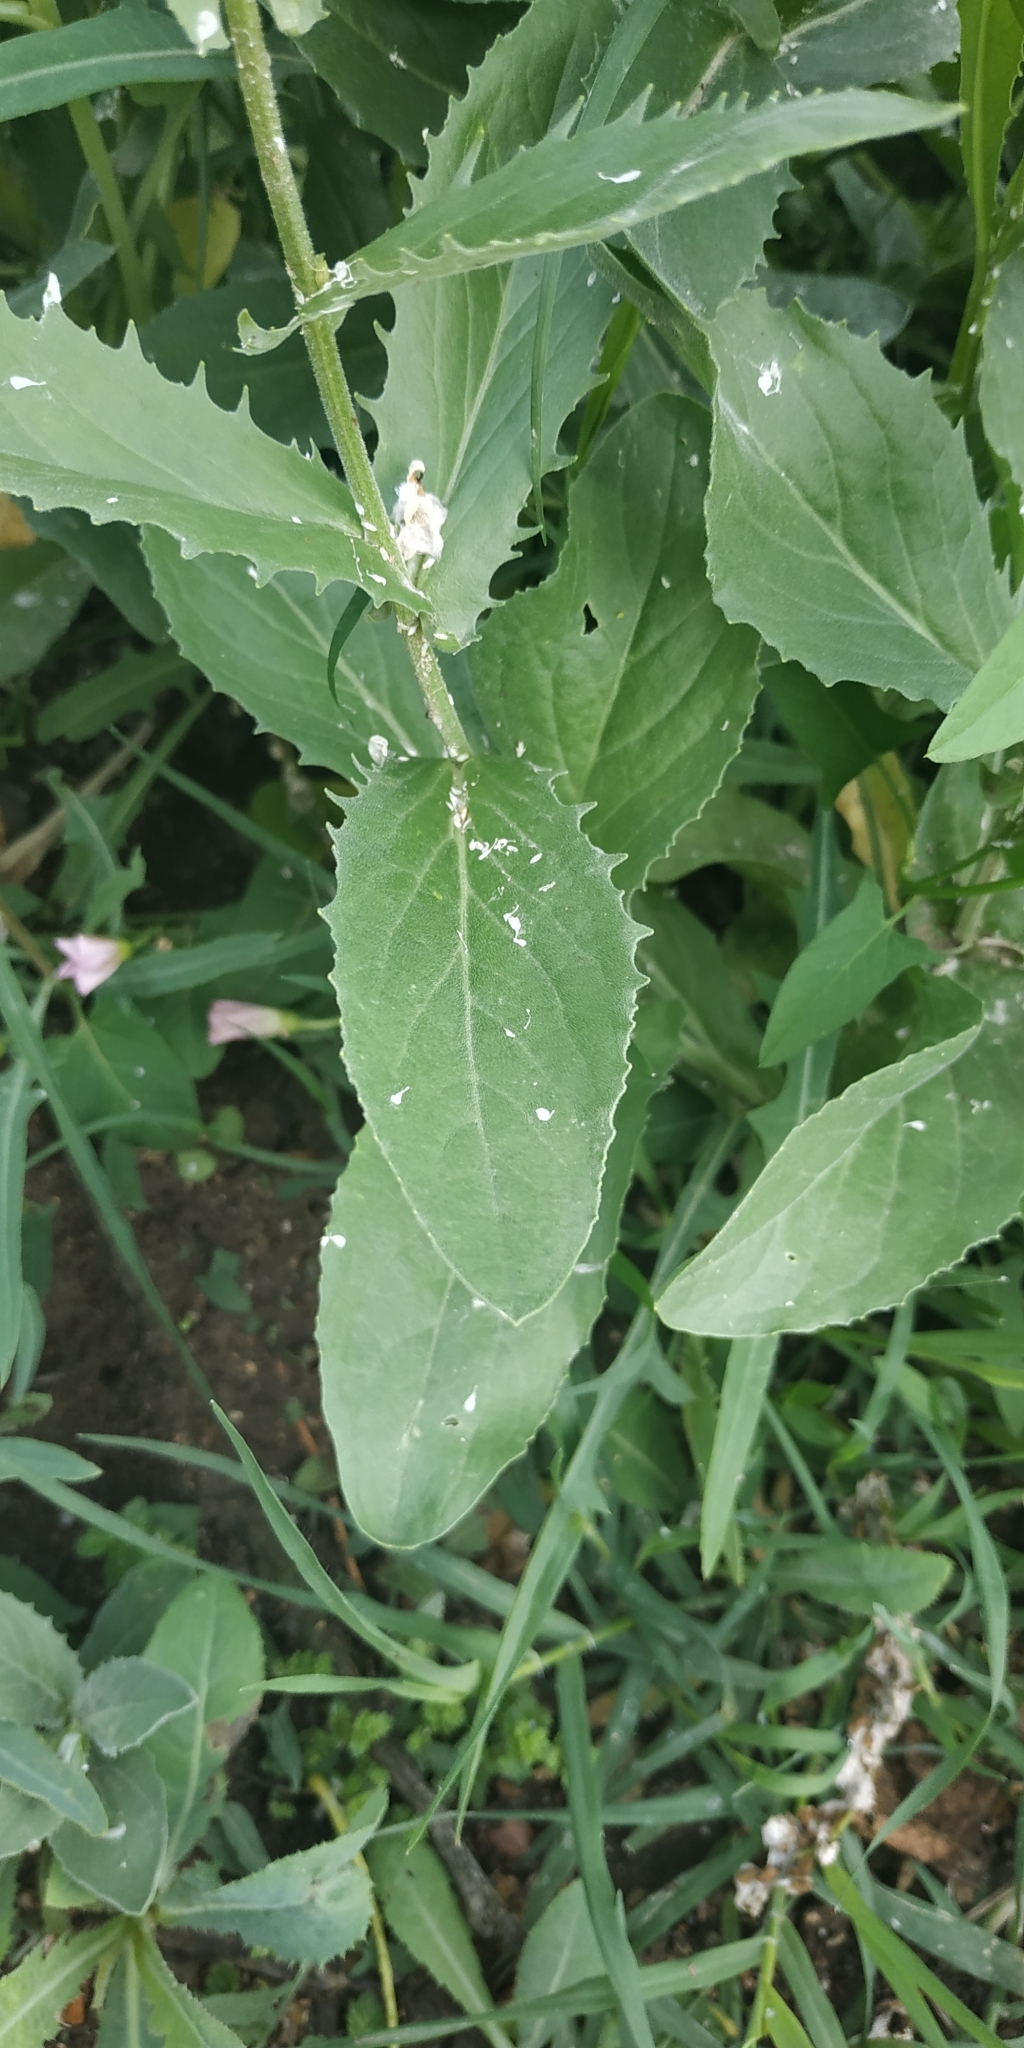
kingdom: Plantae
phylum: Tracheophyta
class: Magnoliopsida
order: Brassicales
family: Brassicaceae
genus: Lepidium
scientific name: Lepidium draba
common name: Hoary cress
